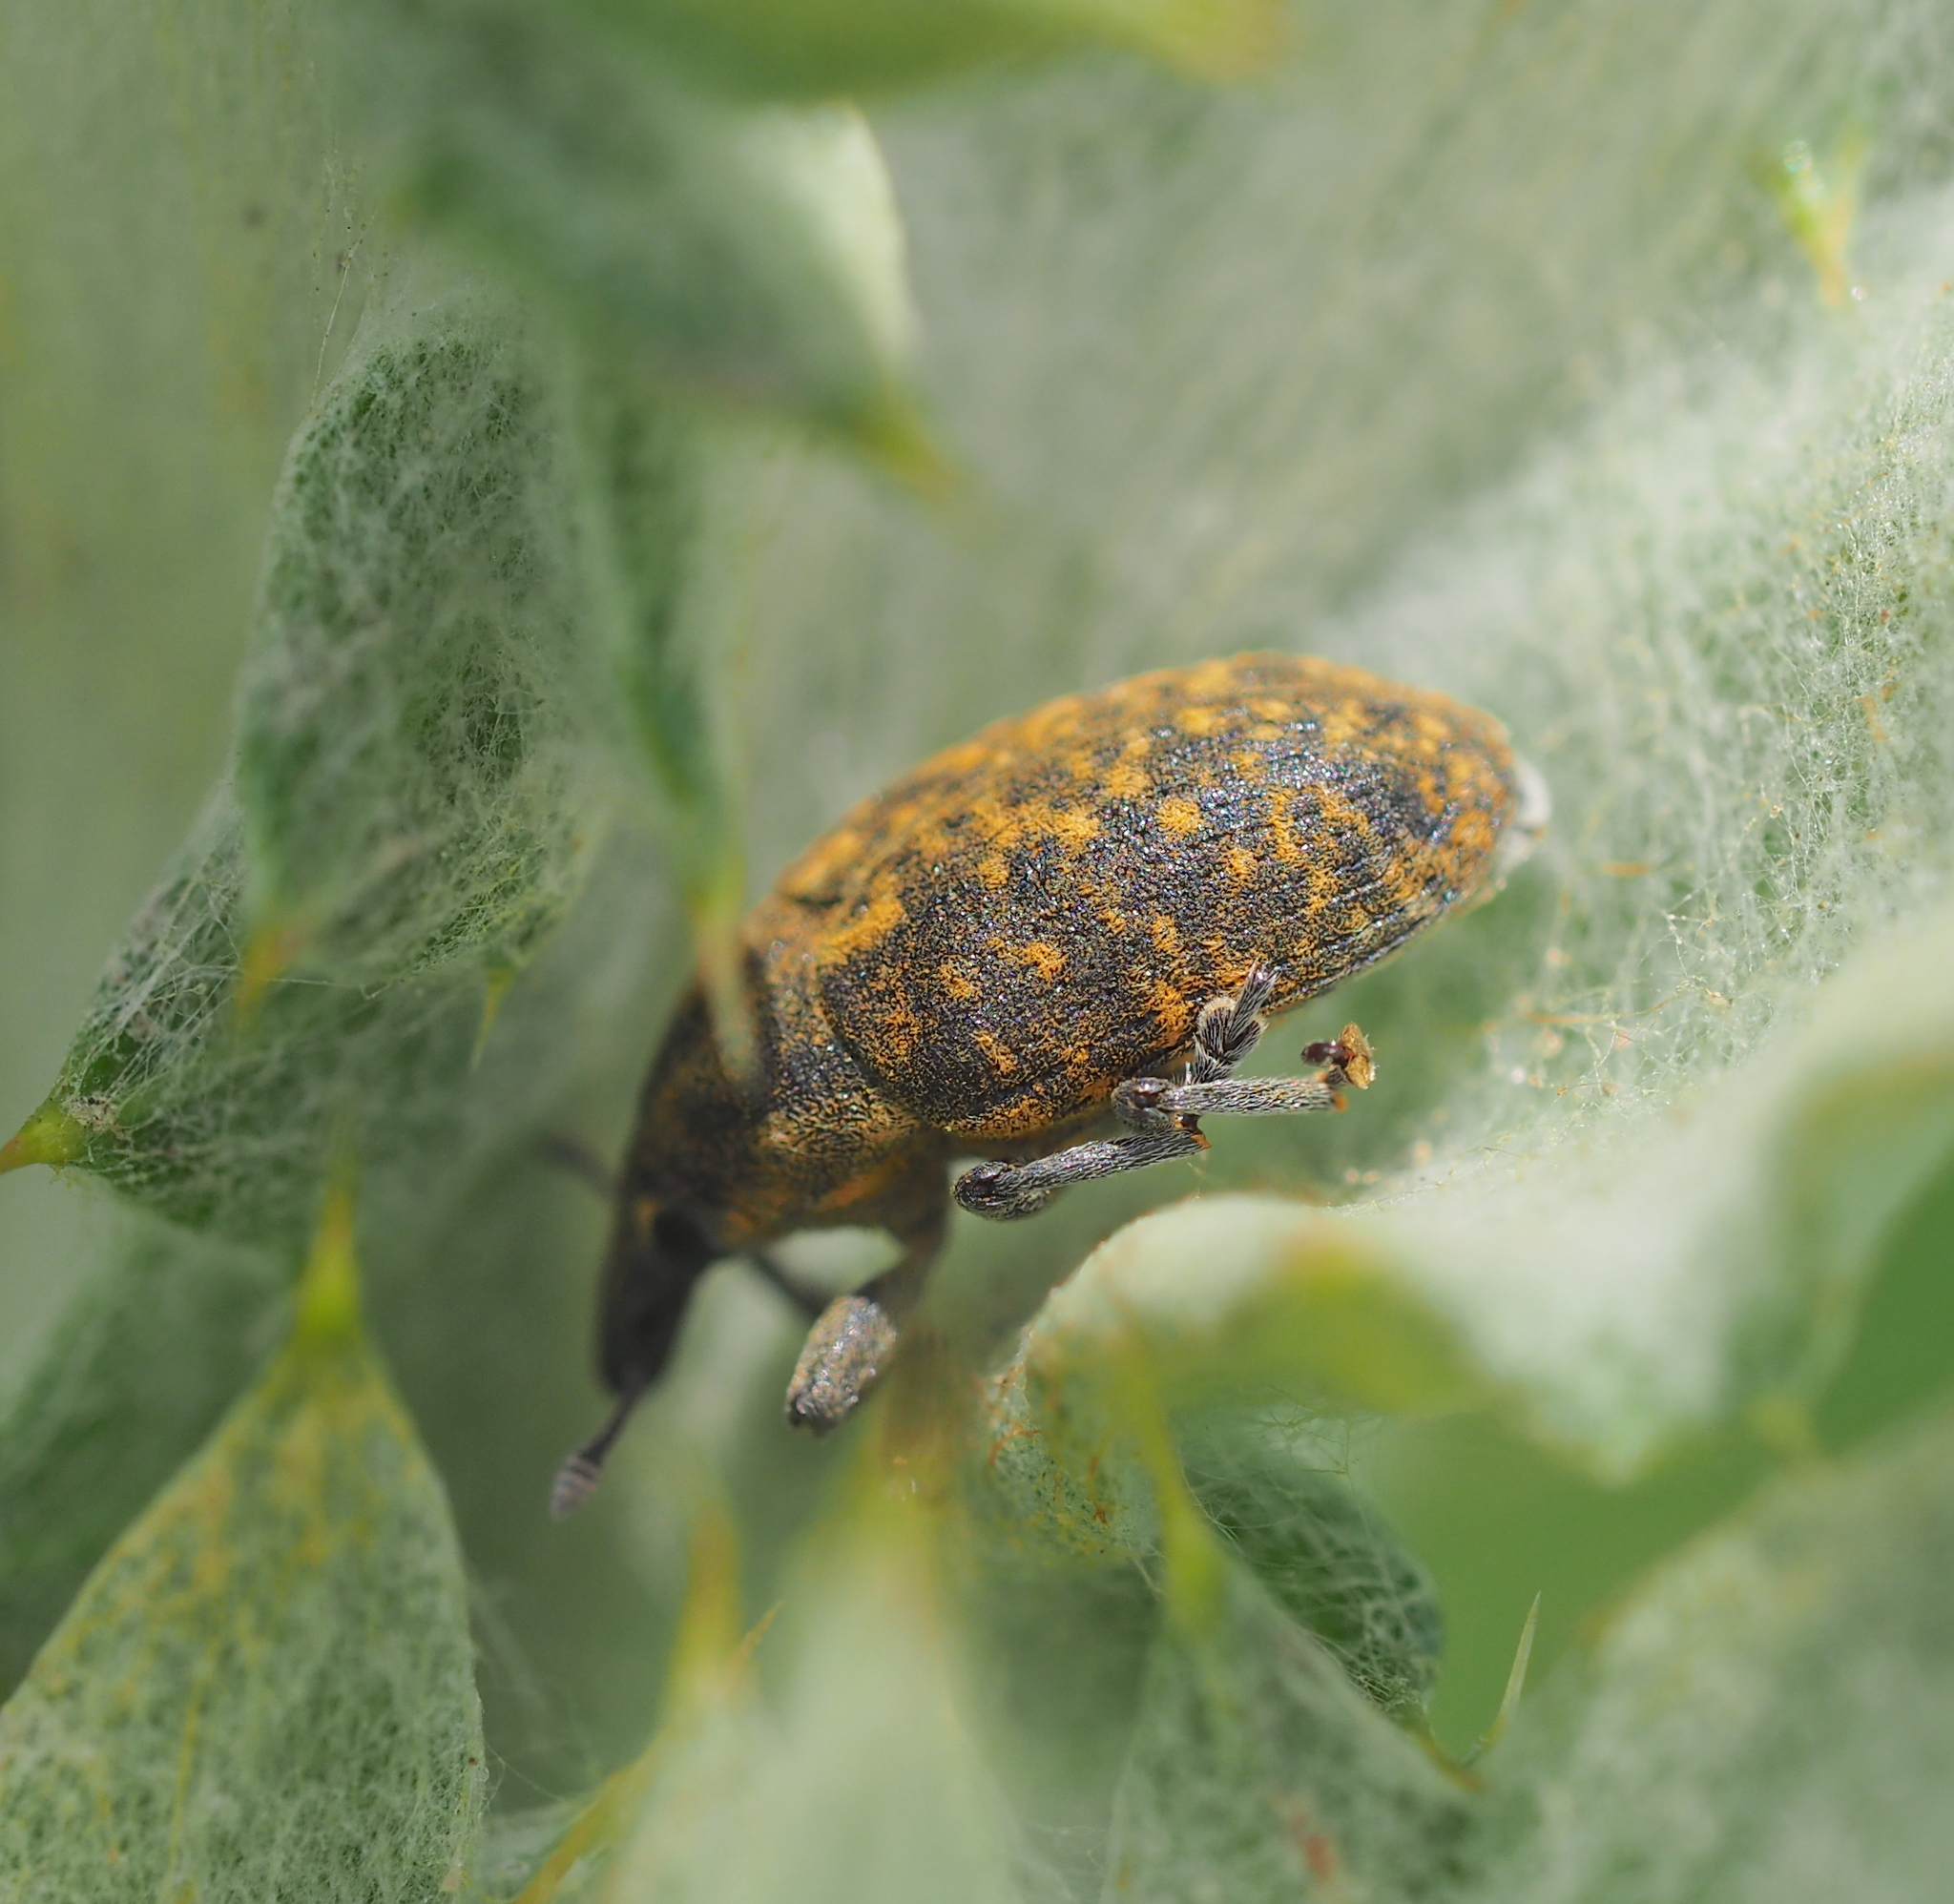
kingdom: Animalia
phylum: Arthropoda
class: Insecta
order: Coleoptera
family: Curculionidae
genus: Larinus
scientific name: Larinus turbinatus
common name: Weevil
